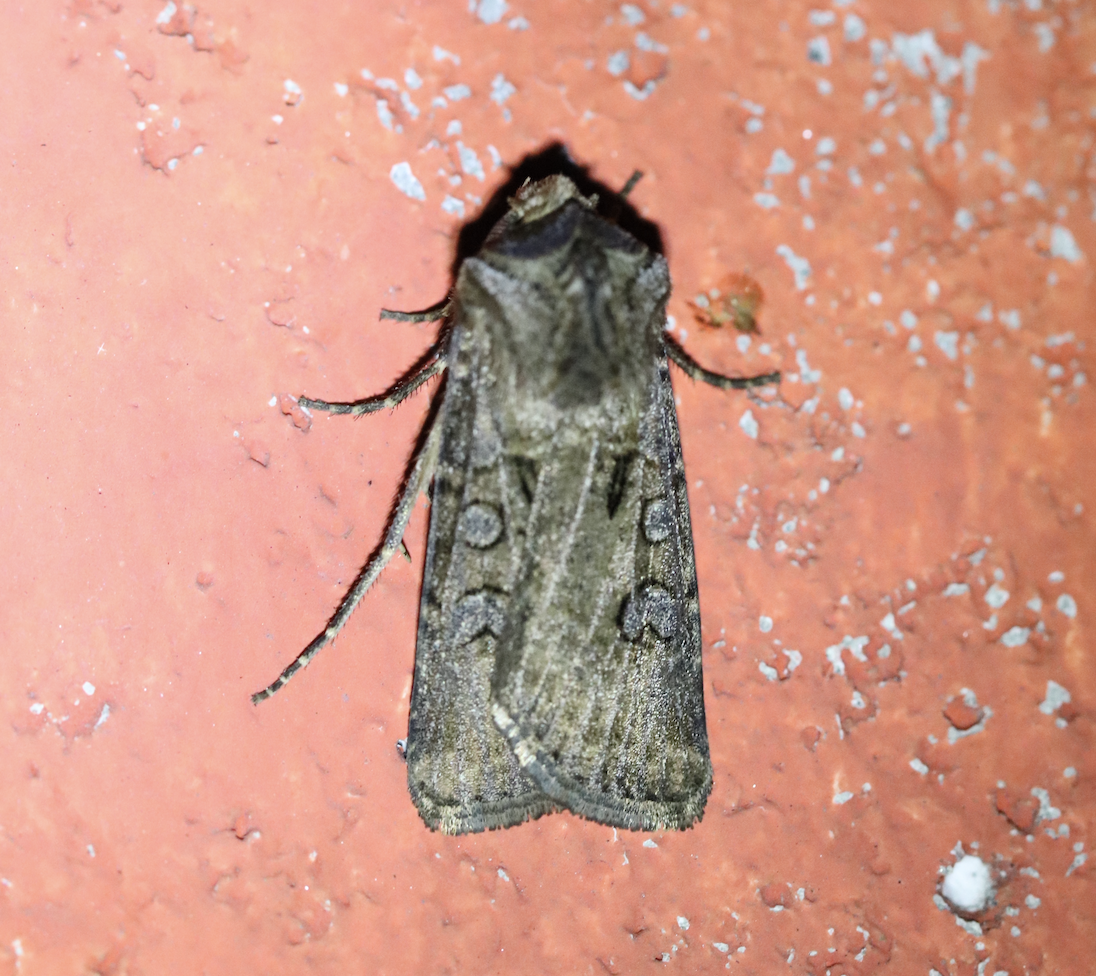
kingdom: Animalia
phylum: Arthropoda
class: Insecta
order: Lepidoptera
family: Noctuidae
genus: Agrotis
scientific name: Agrotis clavis
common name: Heart and club
